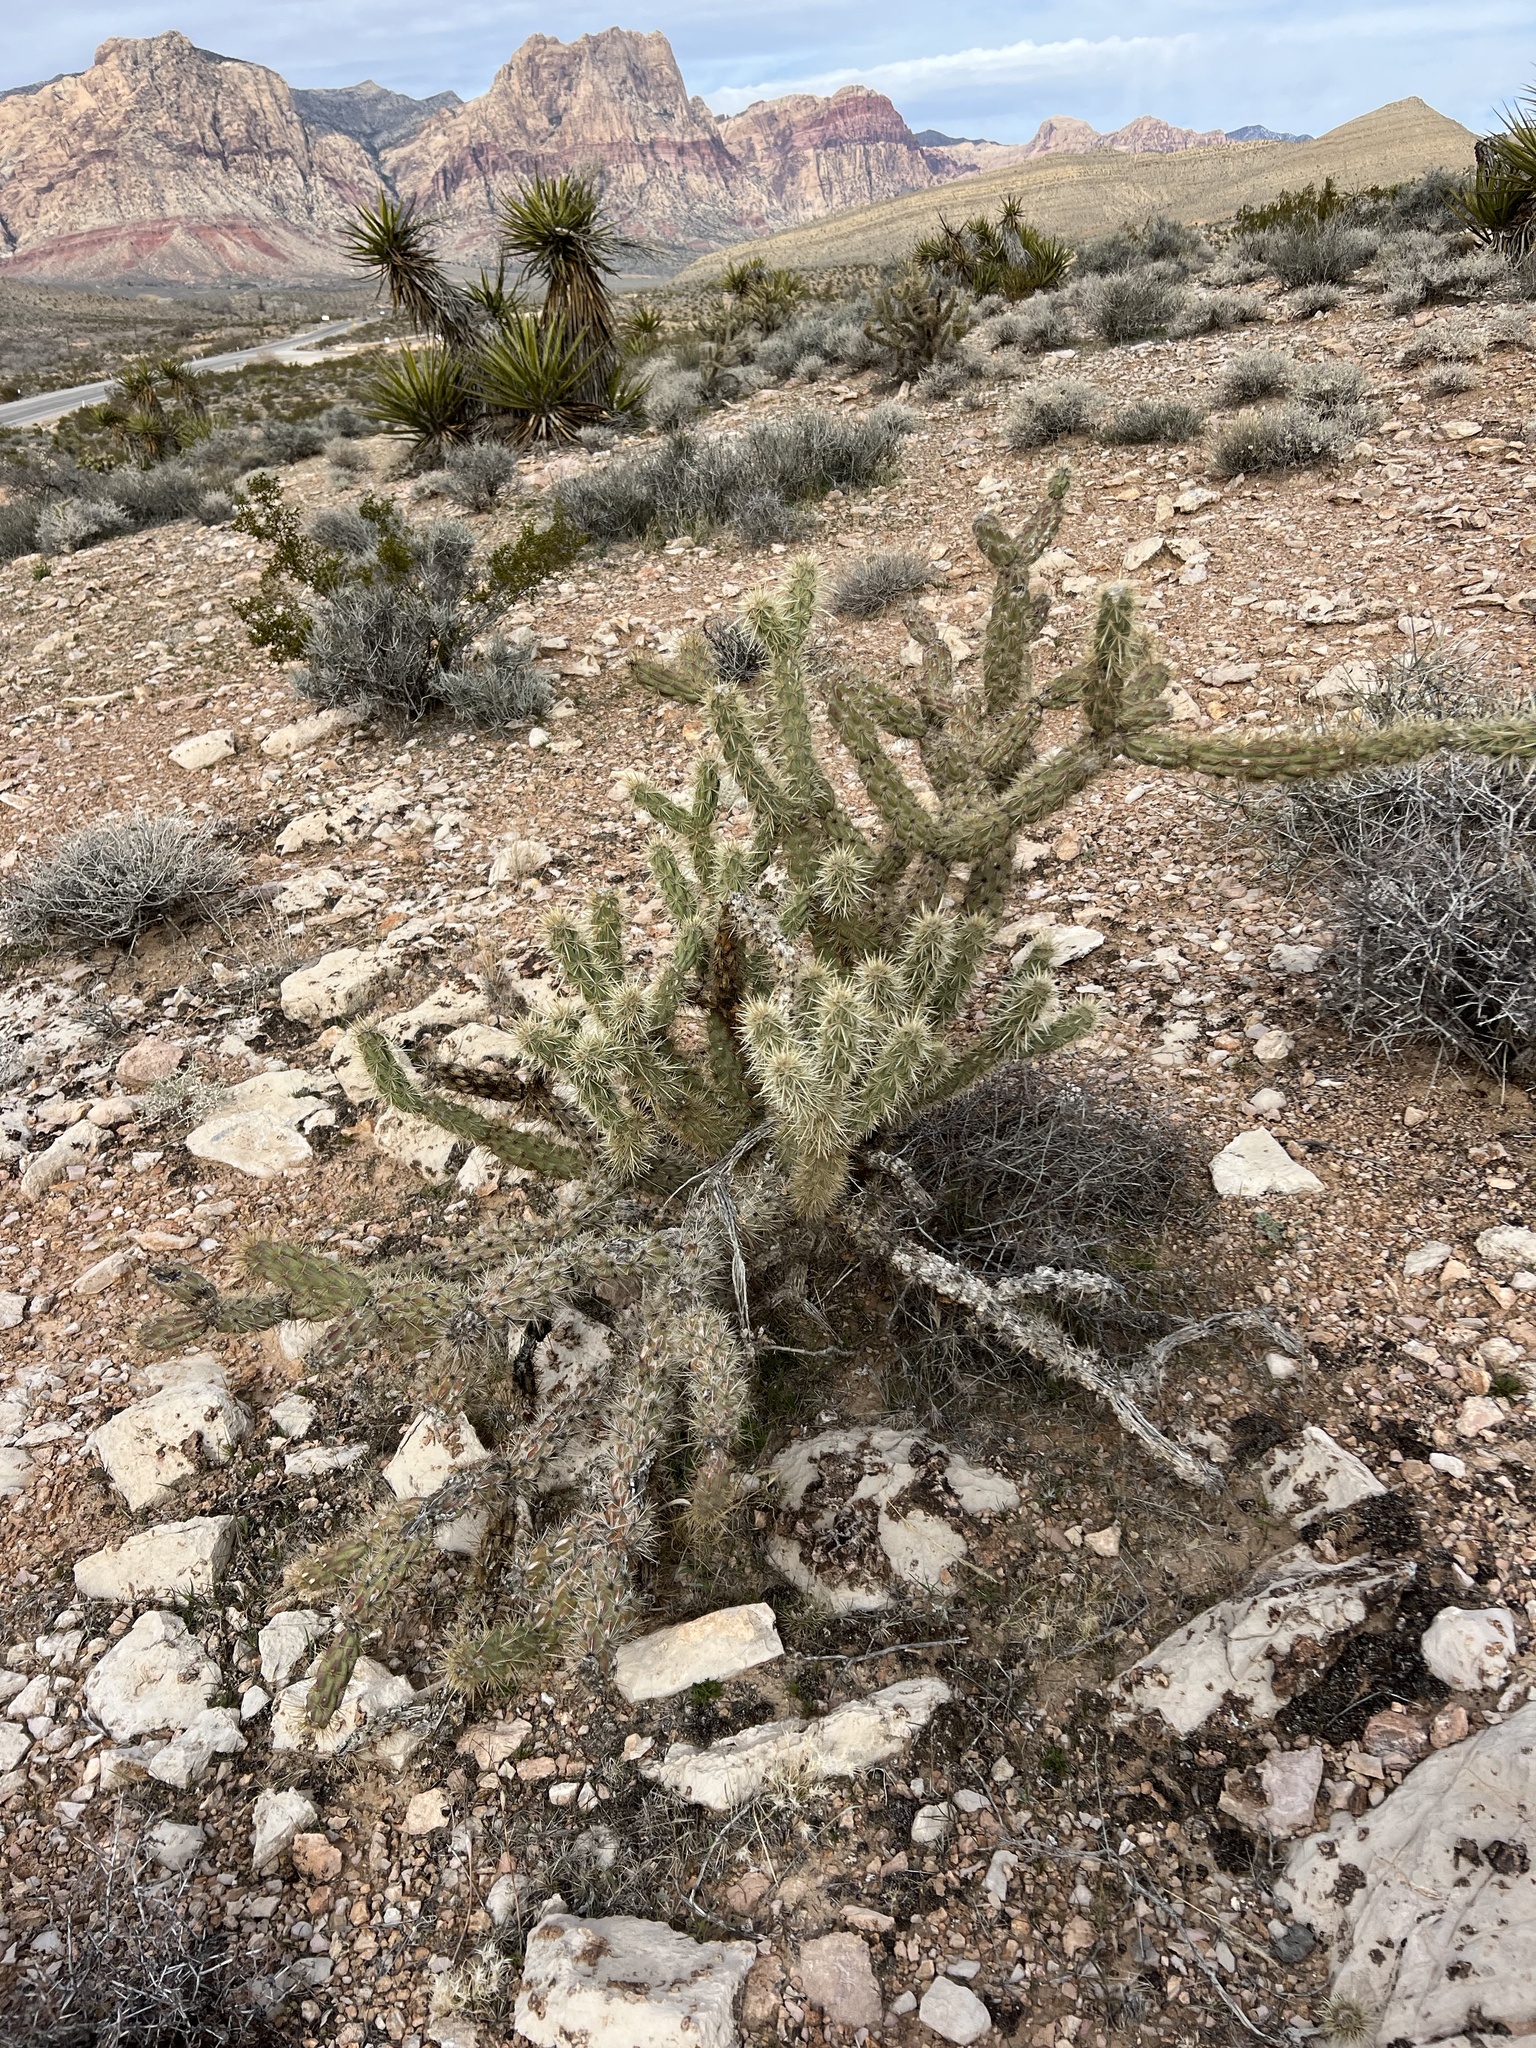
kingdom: Plantae
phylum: Tracheophyta
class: Magnoliopsida
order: Caryophyllales
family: Cactaceae
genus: Cylindropuntia
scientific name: Cylindropuntia acanthocarpa
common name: Buckhorn cholla
